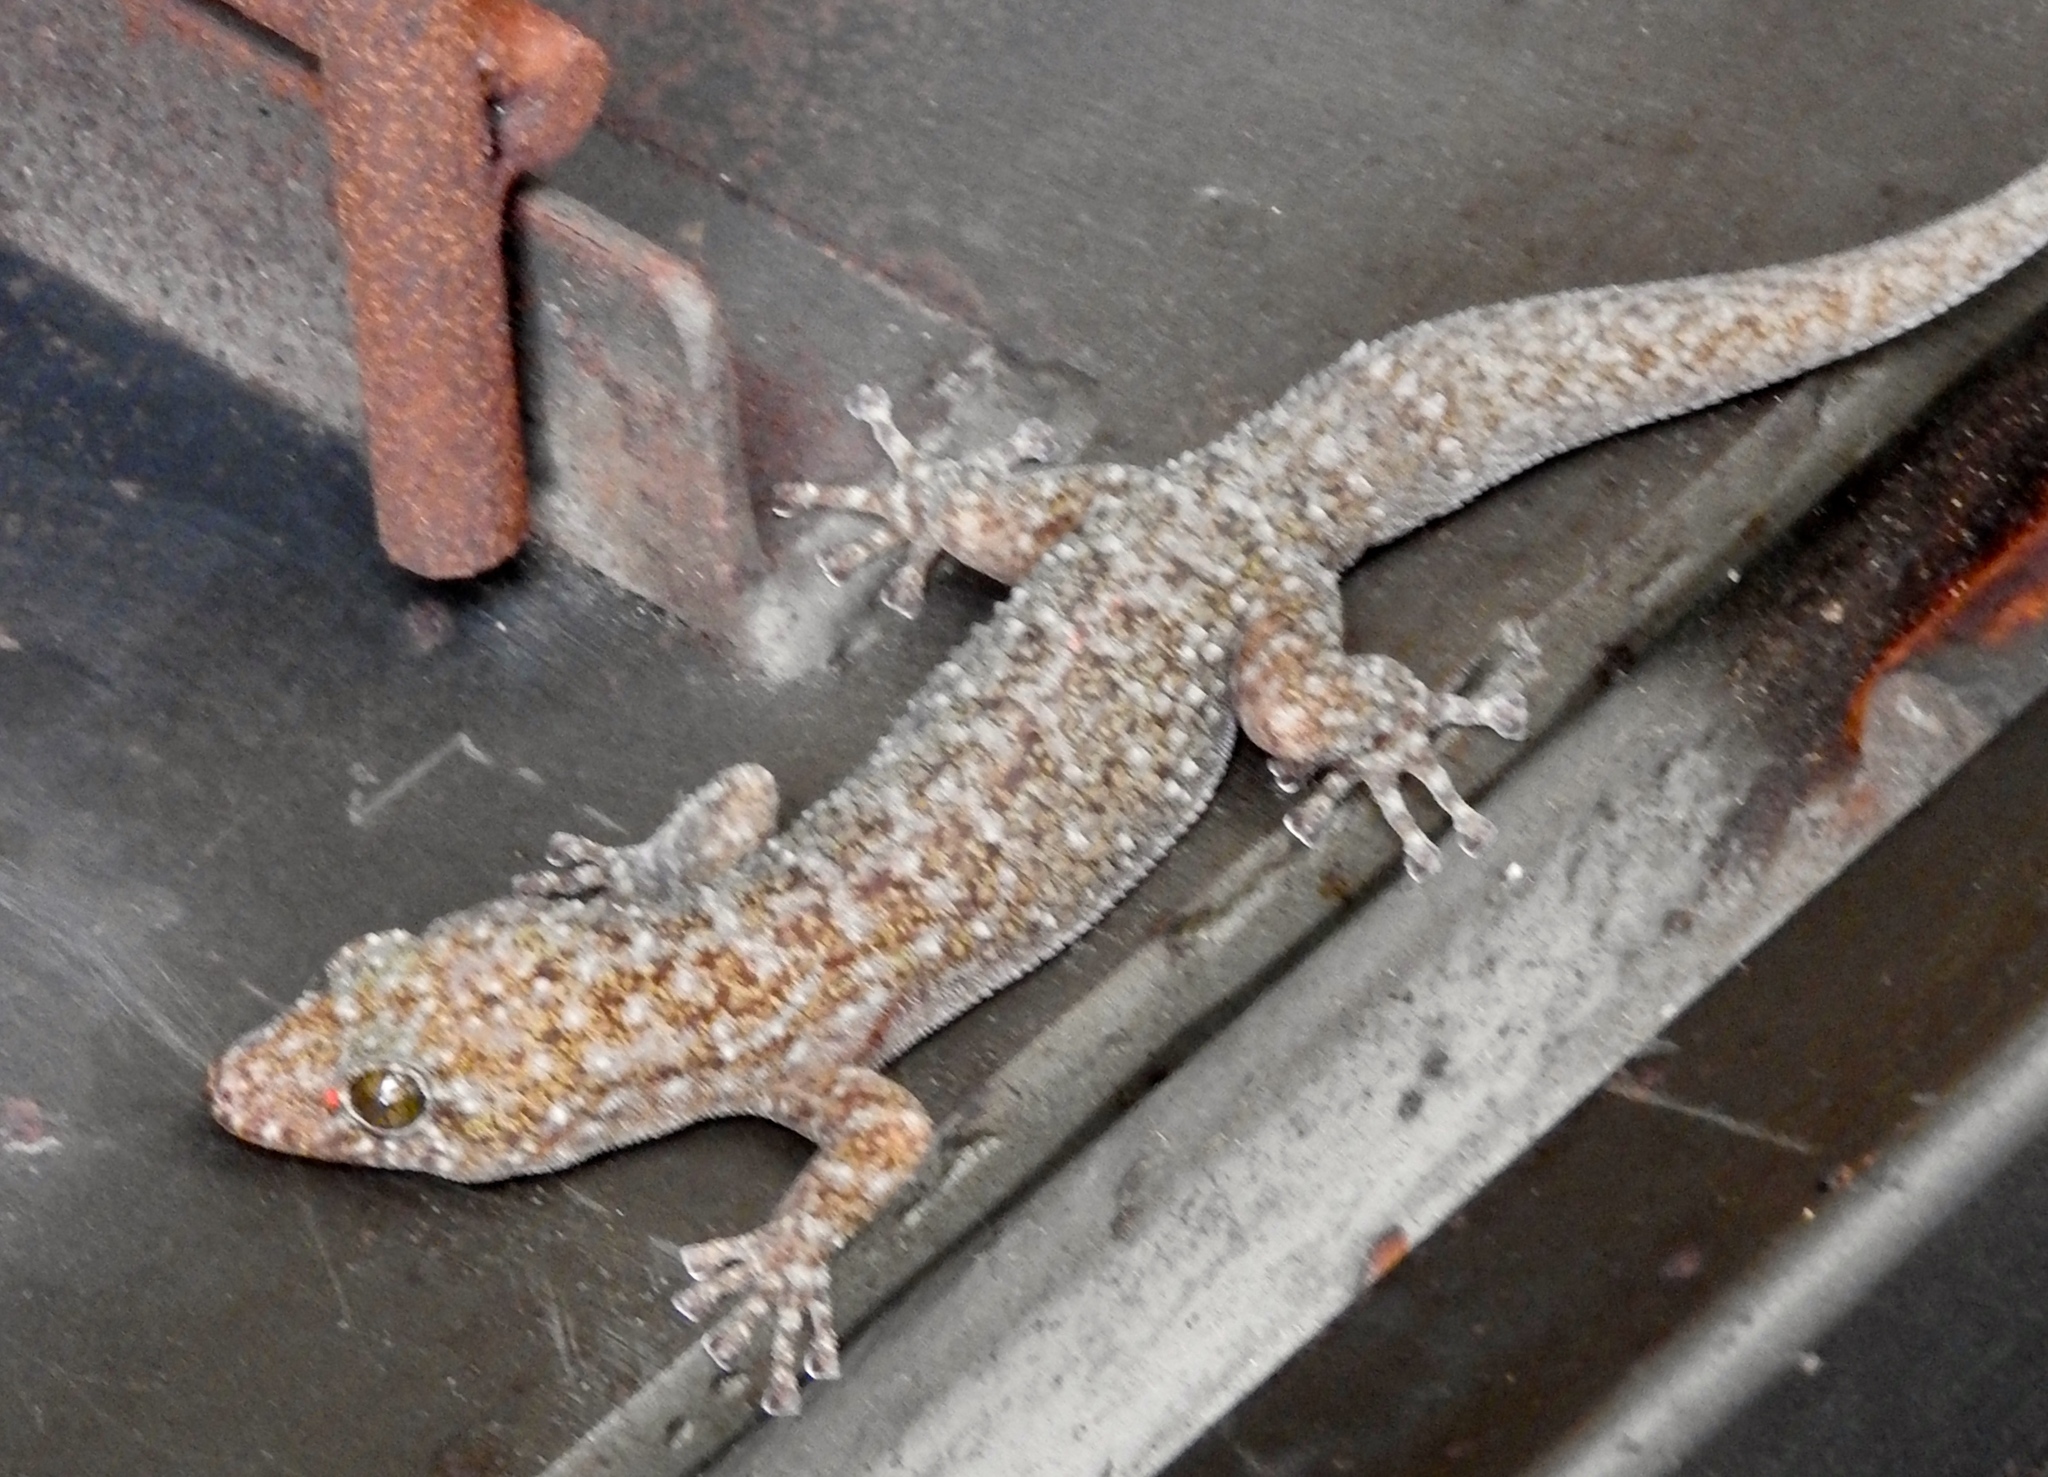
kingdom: Animalia
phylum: Chordata
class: Squamata
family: Phyllodactylidae
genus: Phyllodactylus
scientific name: Phyllodactylus lanei
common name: Lane's leaf-toed gecko
